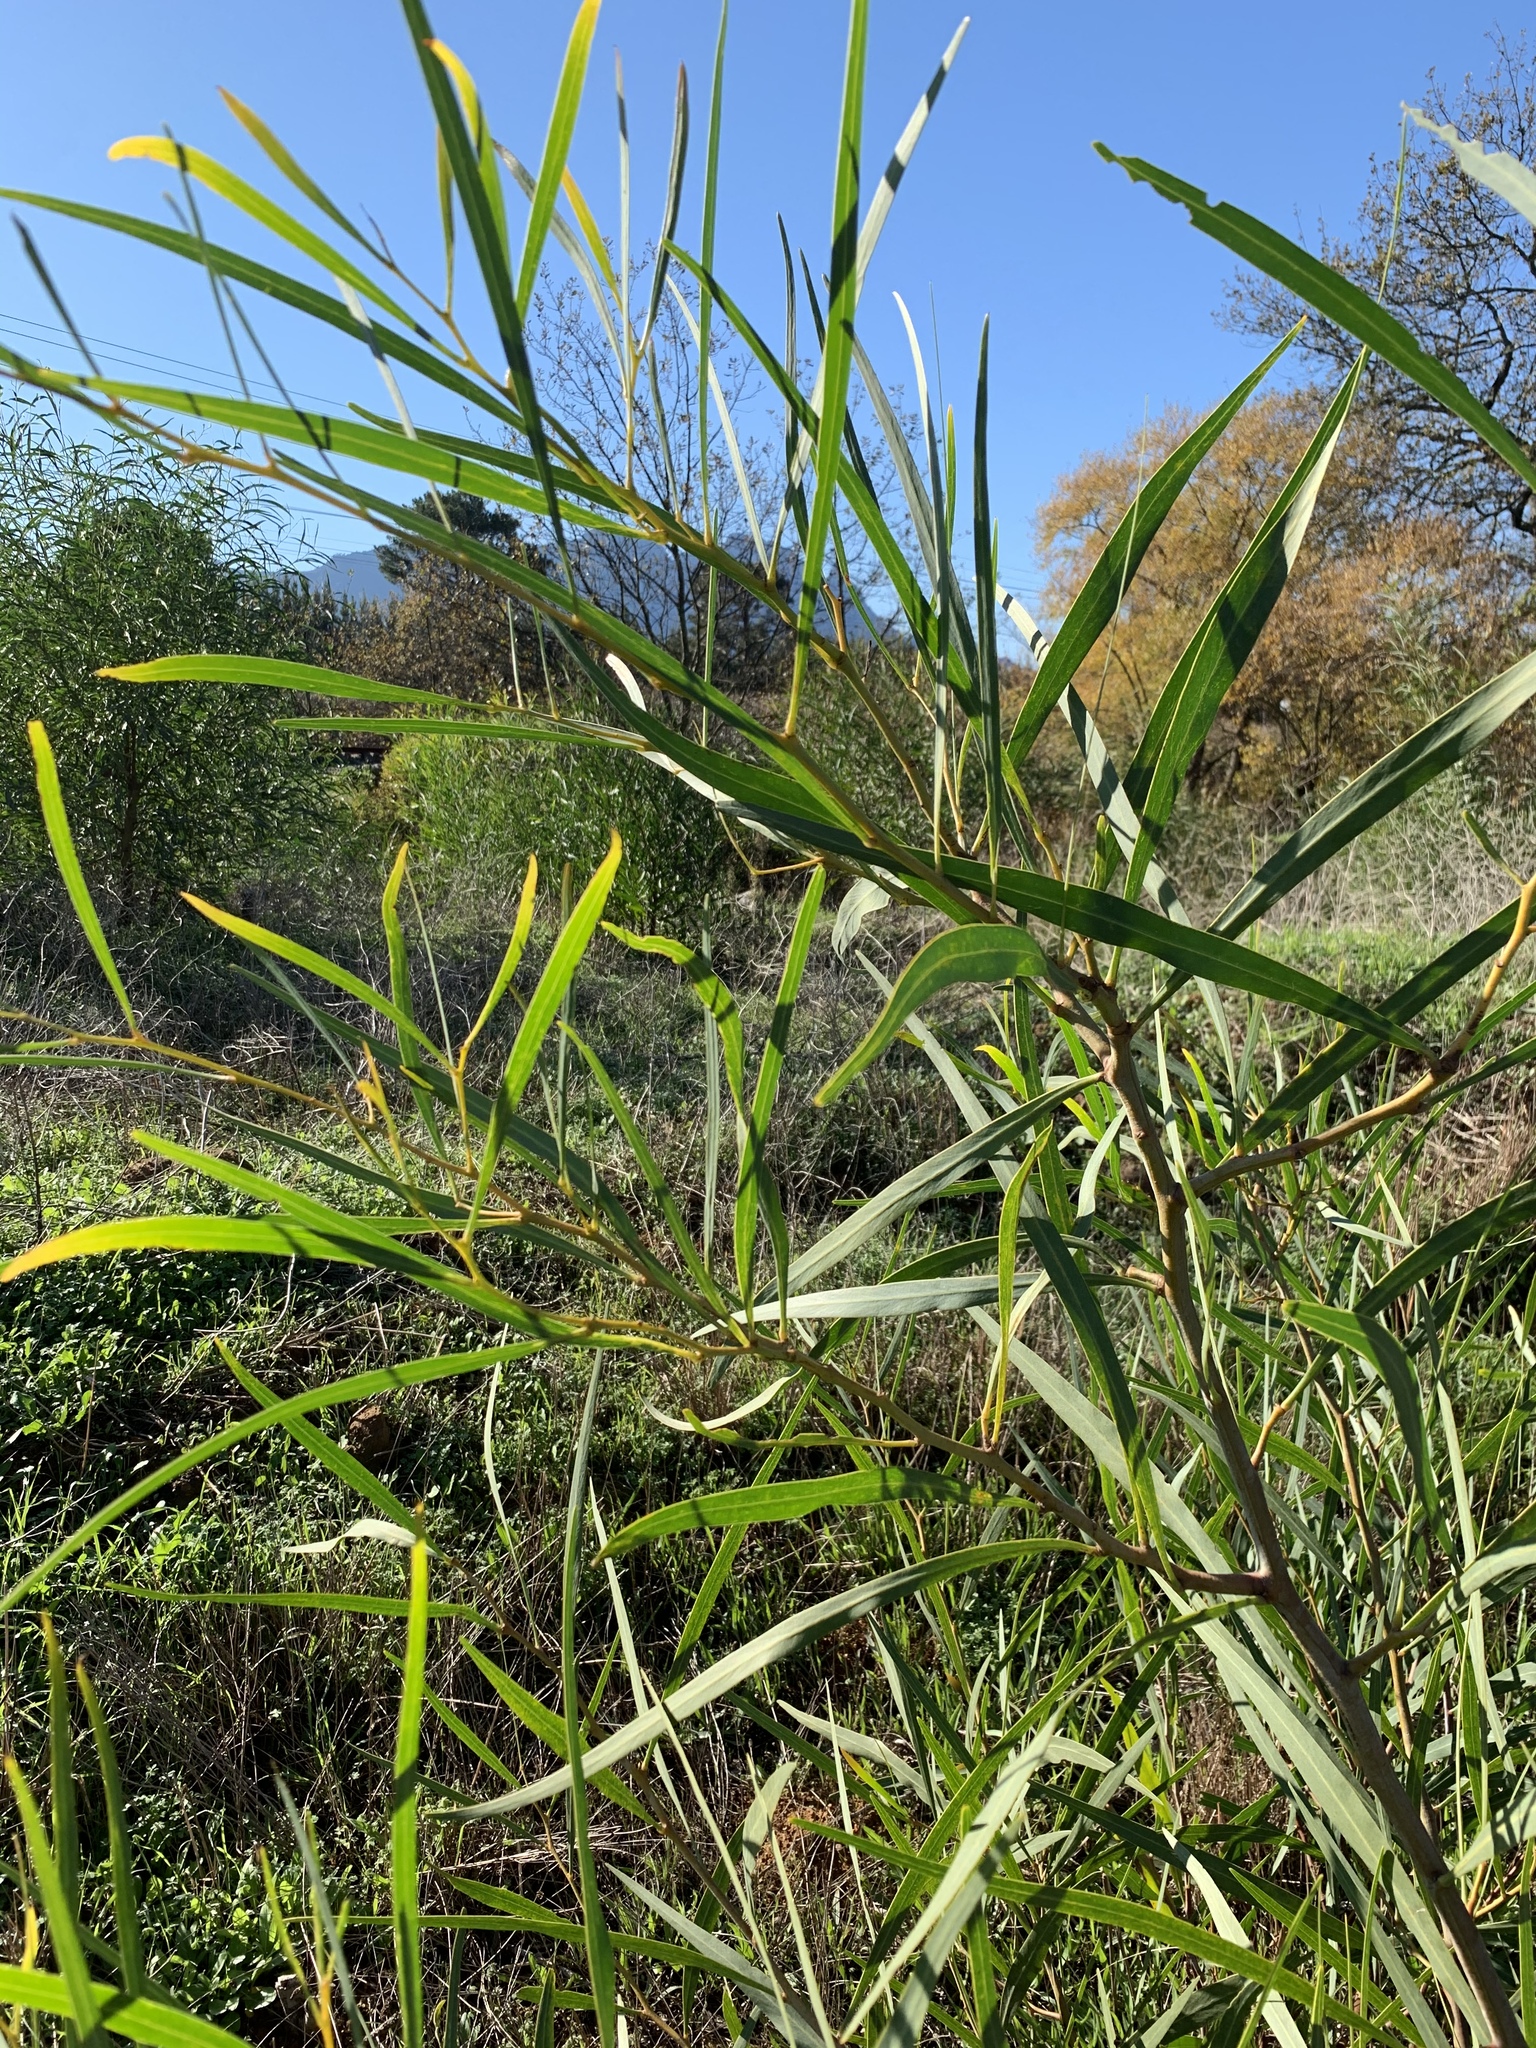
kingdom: Plantae
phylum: Tracheophyta
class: Magnoliopsida
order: Fabales
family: Fabaceae
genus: Acacia
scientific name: Acacia saligna
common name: Orange wattle
